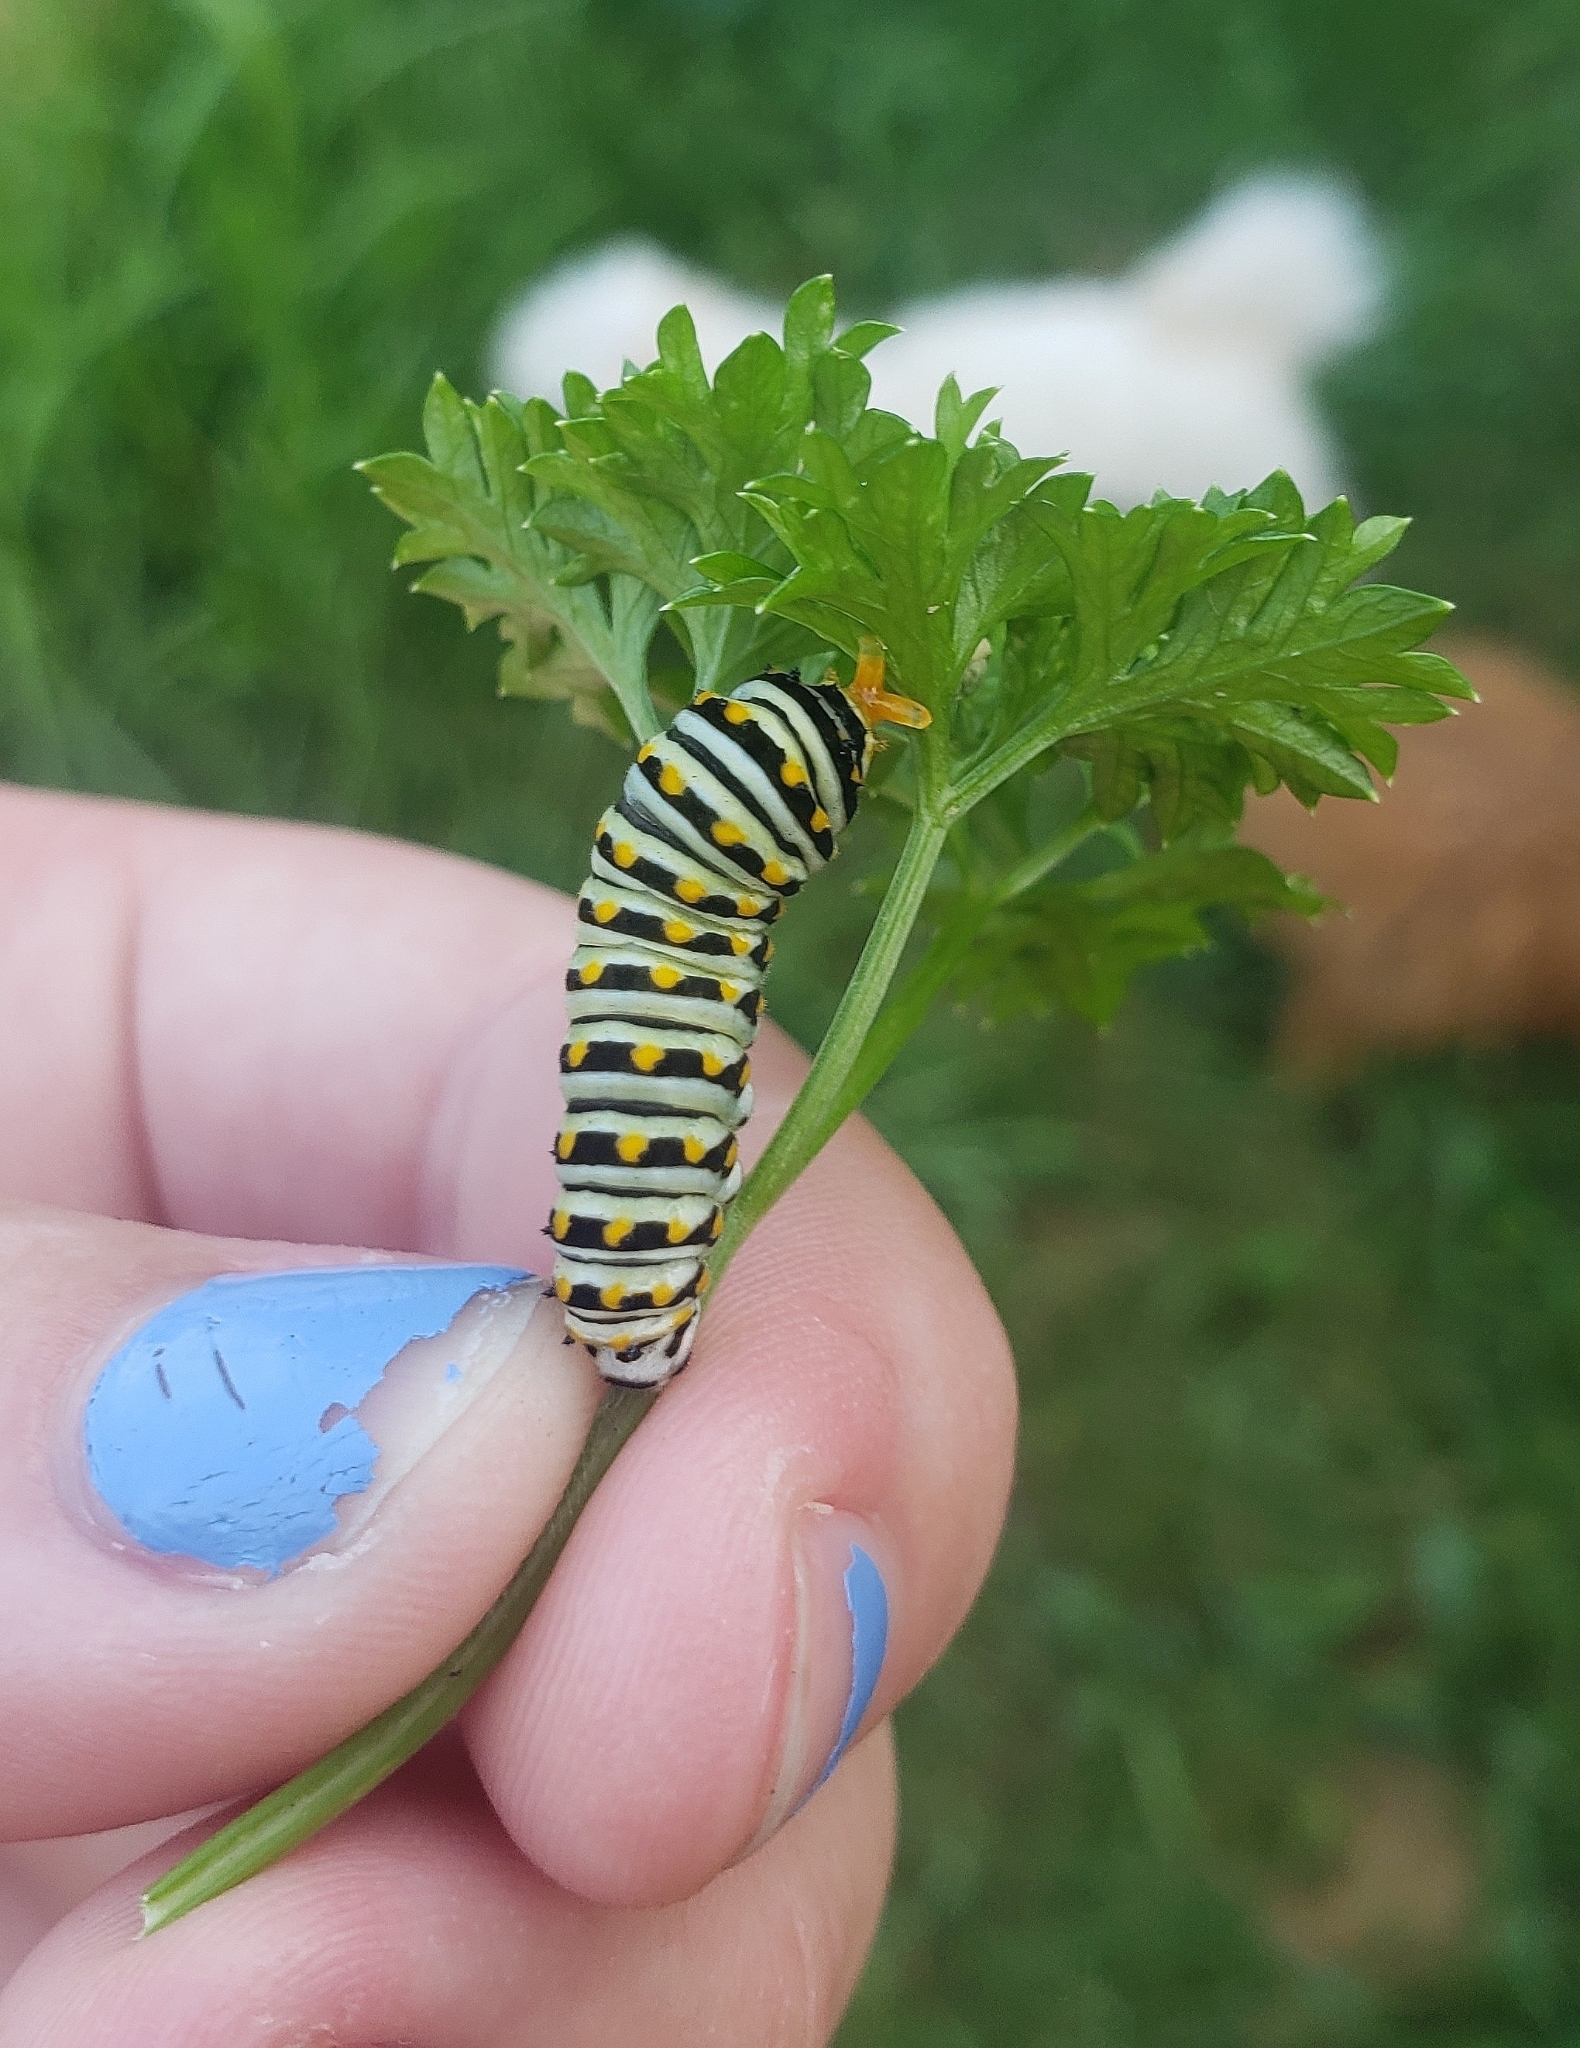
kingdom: Animalia
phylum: Arthropoda
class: Insecta
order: Lepidoptera
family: Papilionidae
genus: Papilio
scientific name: Papilio polyxenes
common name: Black swallowtail
